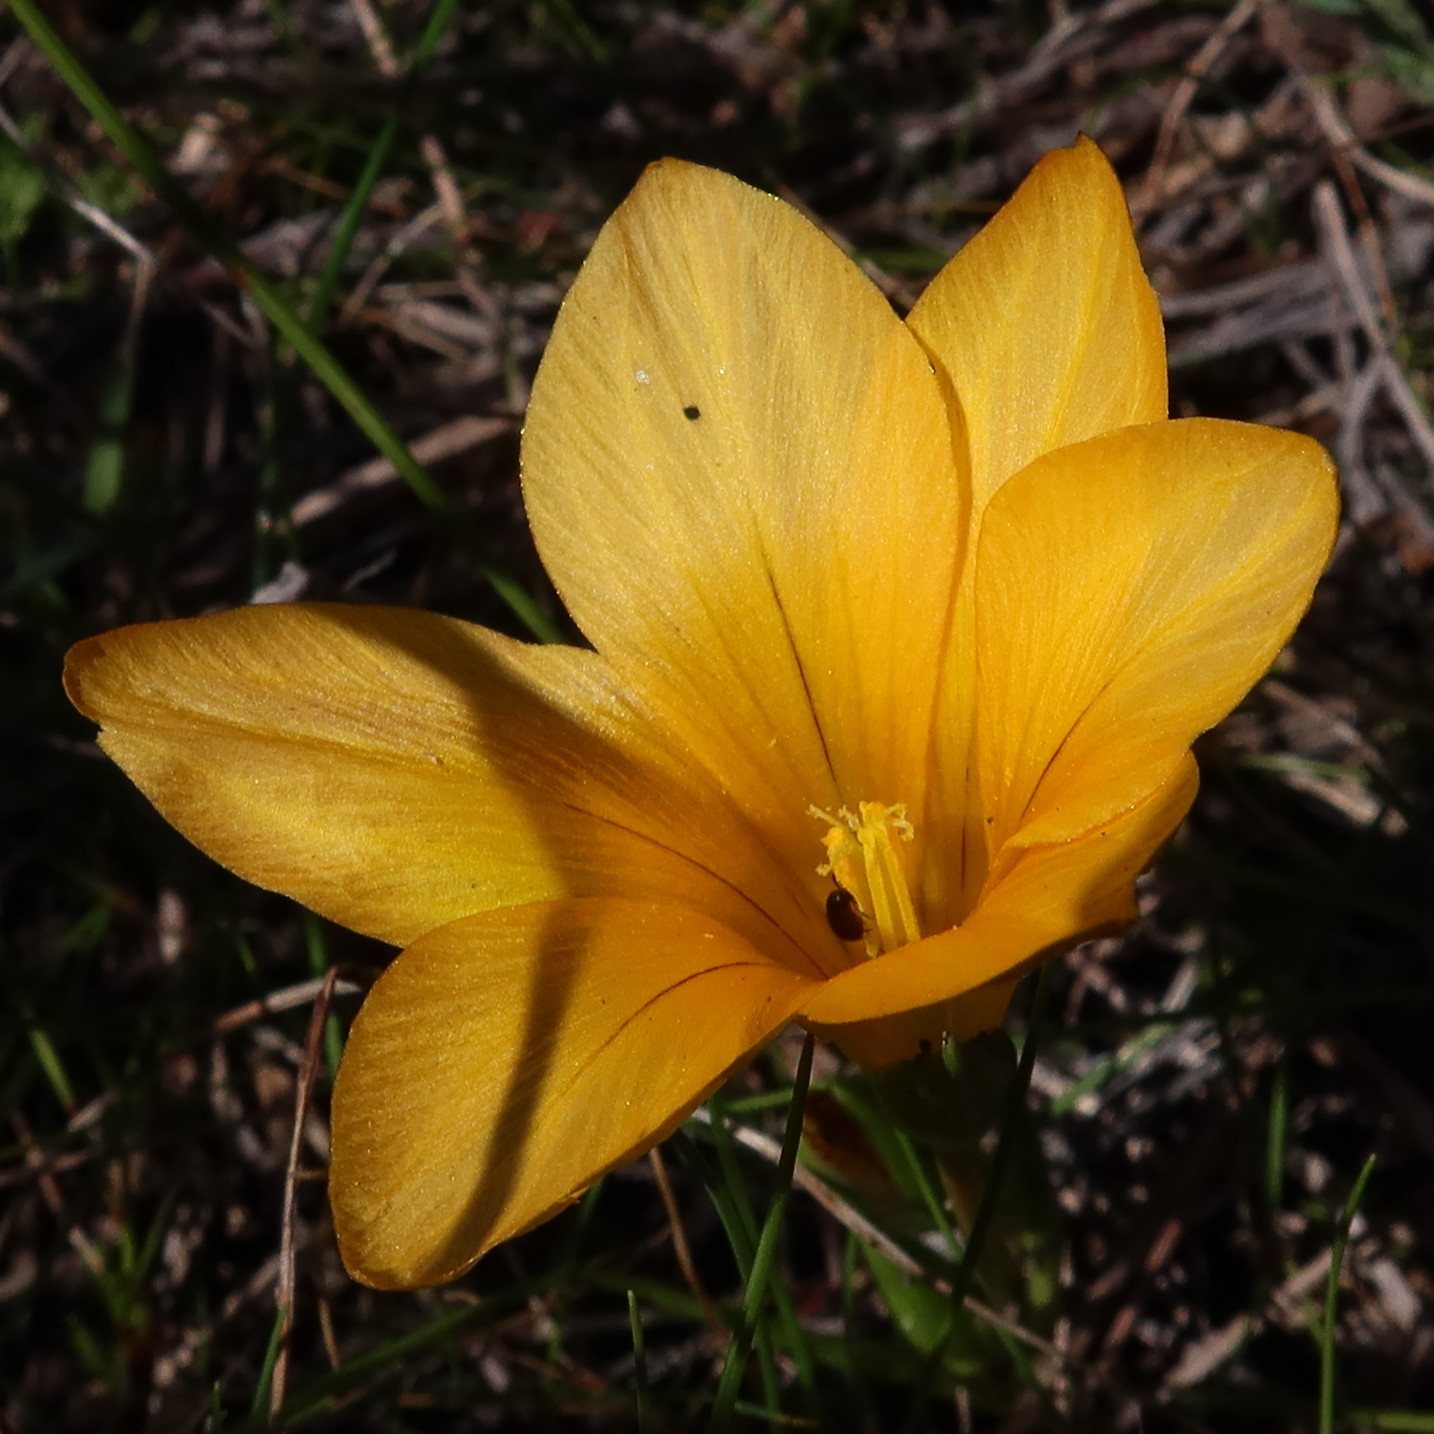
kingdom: Plantae
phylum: Tracheophyta
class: Liliopsida
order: Asparagales
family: Iridaceae
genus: Romulea
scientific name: Romulea flava
